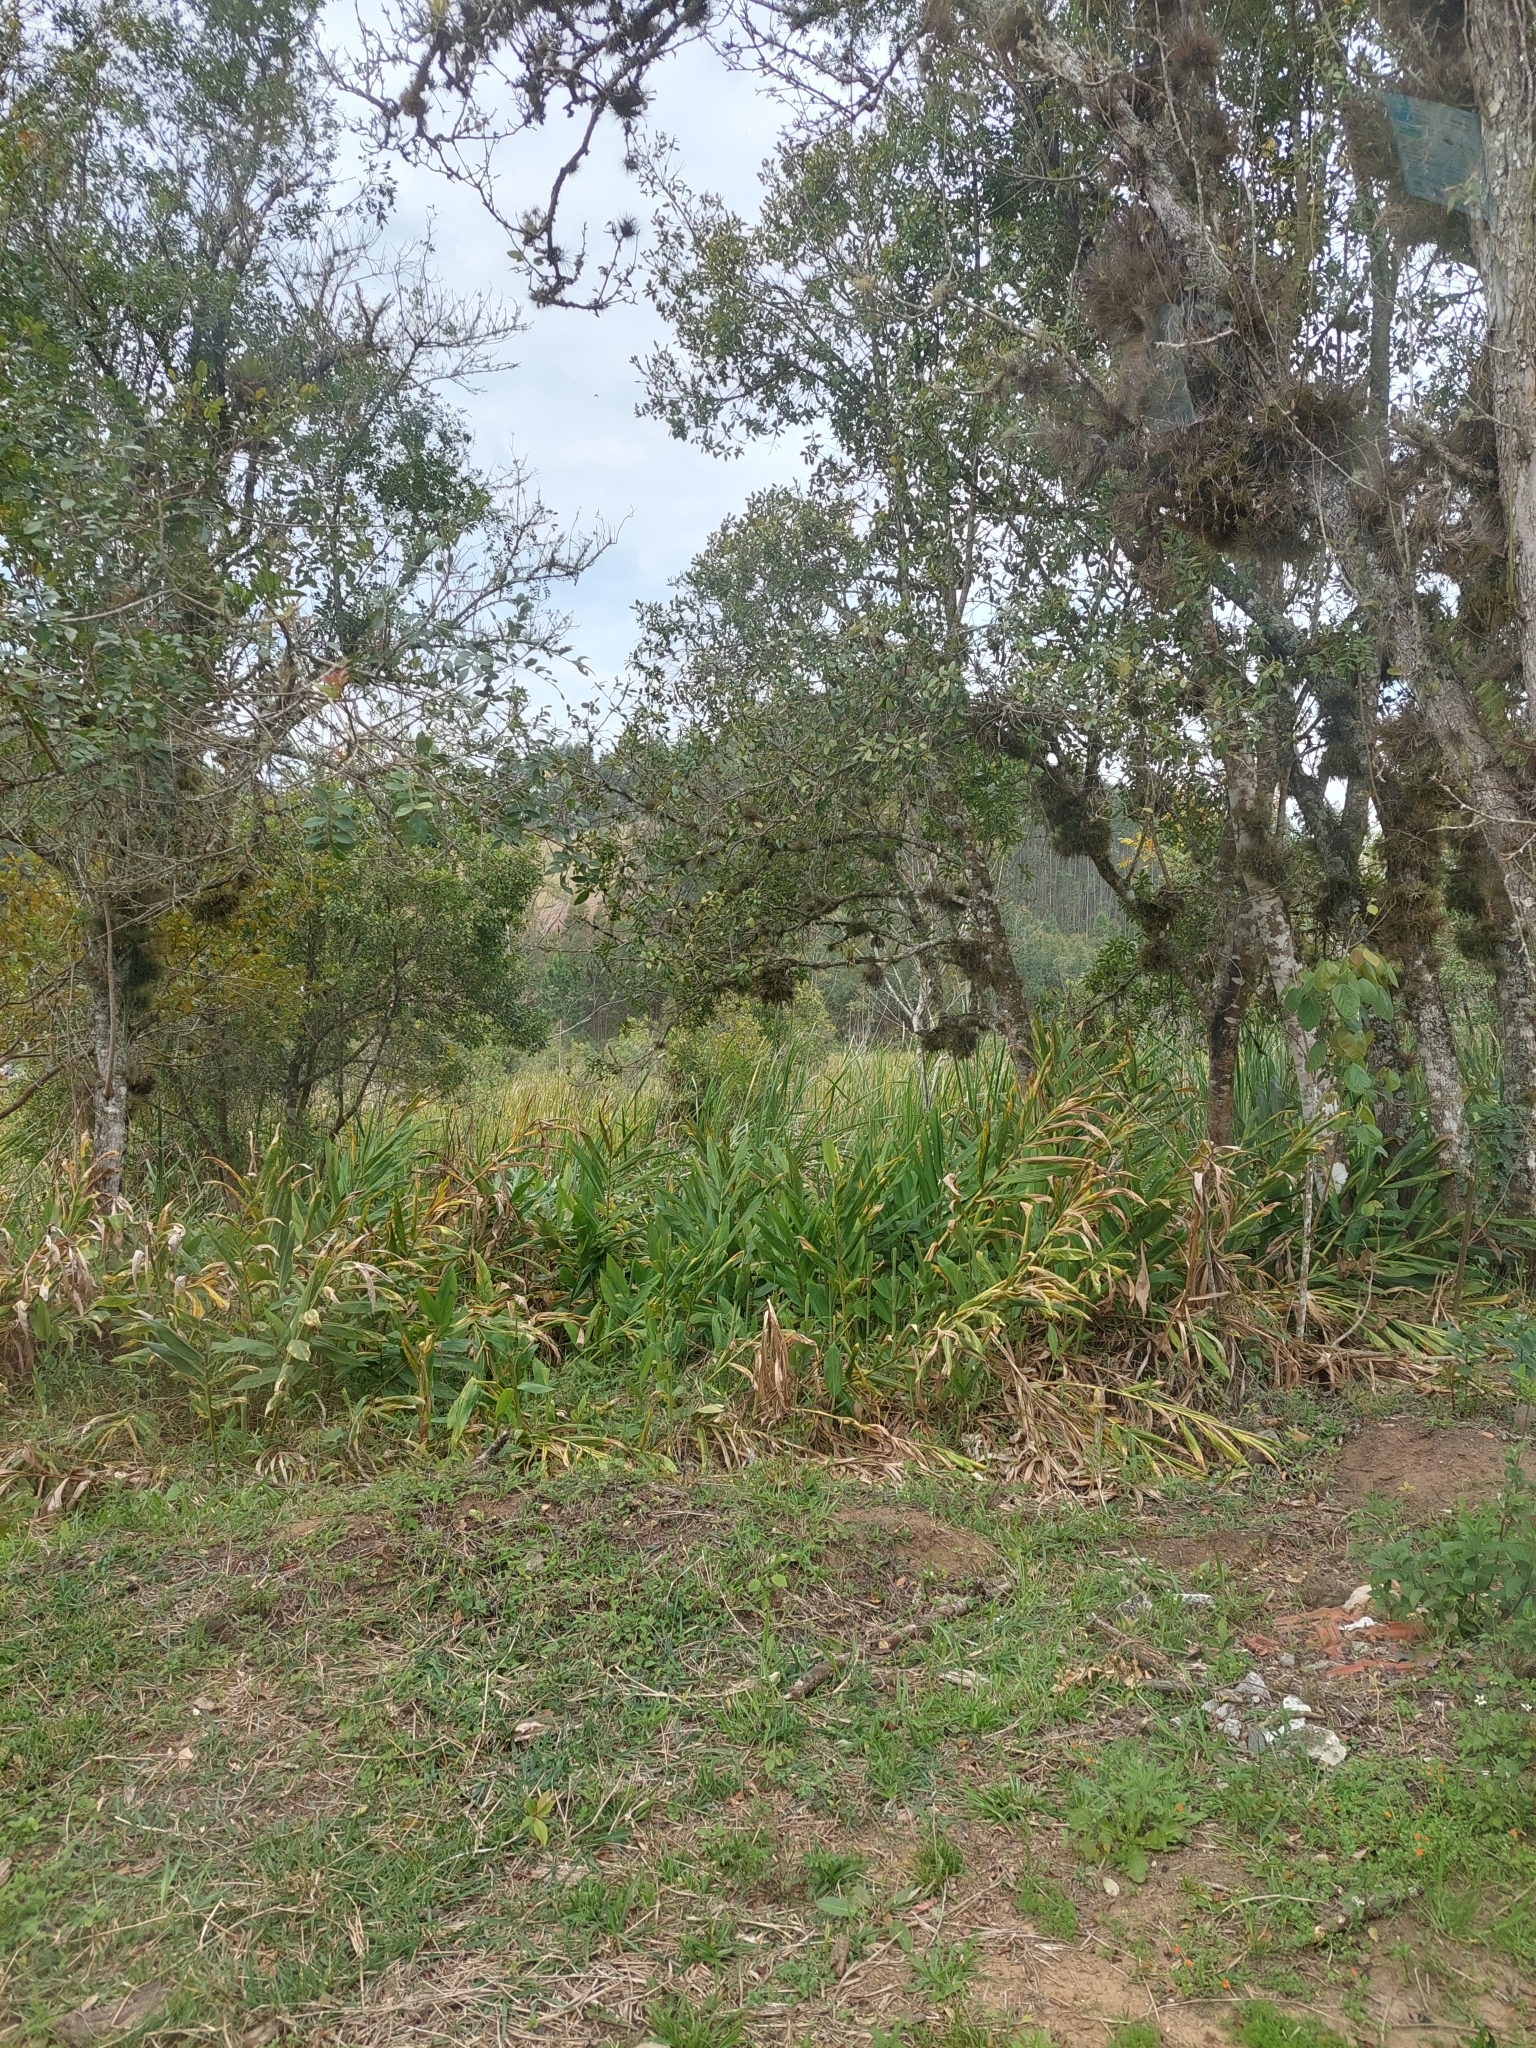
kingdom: Plantae
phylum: Tracheophyta
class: Liliopsida
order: Zingiberales
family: Zingiberaceae
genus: Hedychium
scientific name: Hedychium coronarium
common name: White garland-lily
